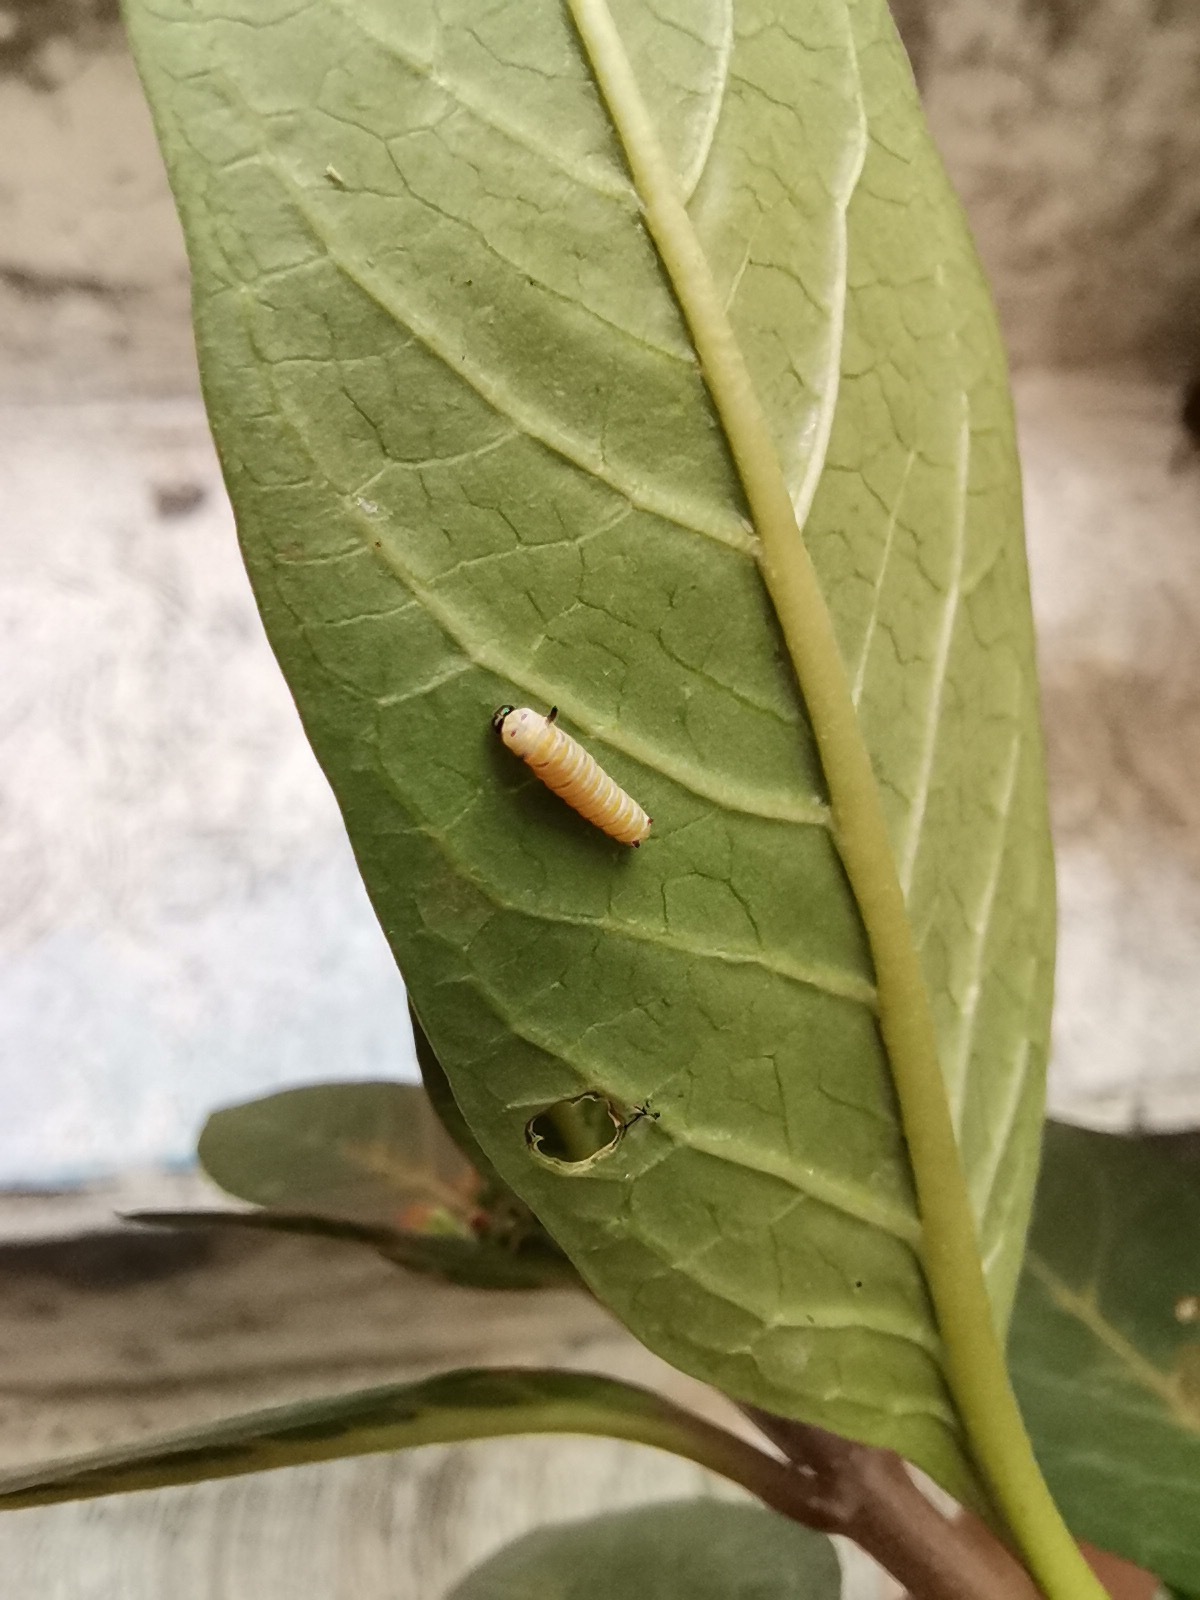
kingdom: Animalia
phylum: Arthropoda
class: Insecta
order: Lepidoptera
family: Nymphalidae
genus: Danaus
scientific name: Danaus plexippus
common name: Monarch
